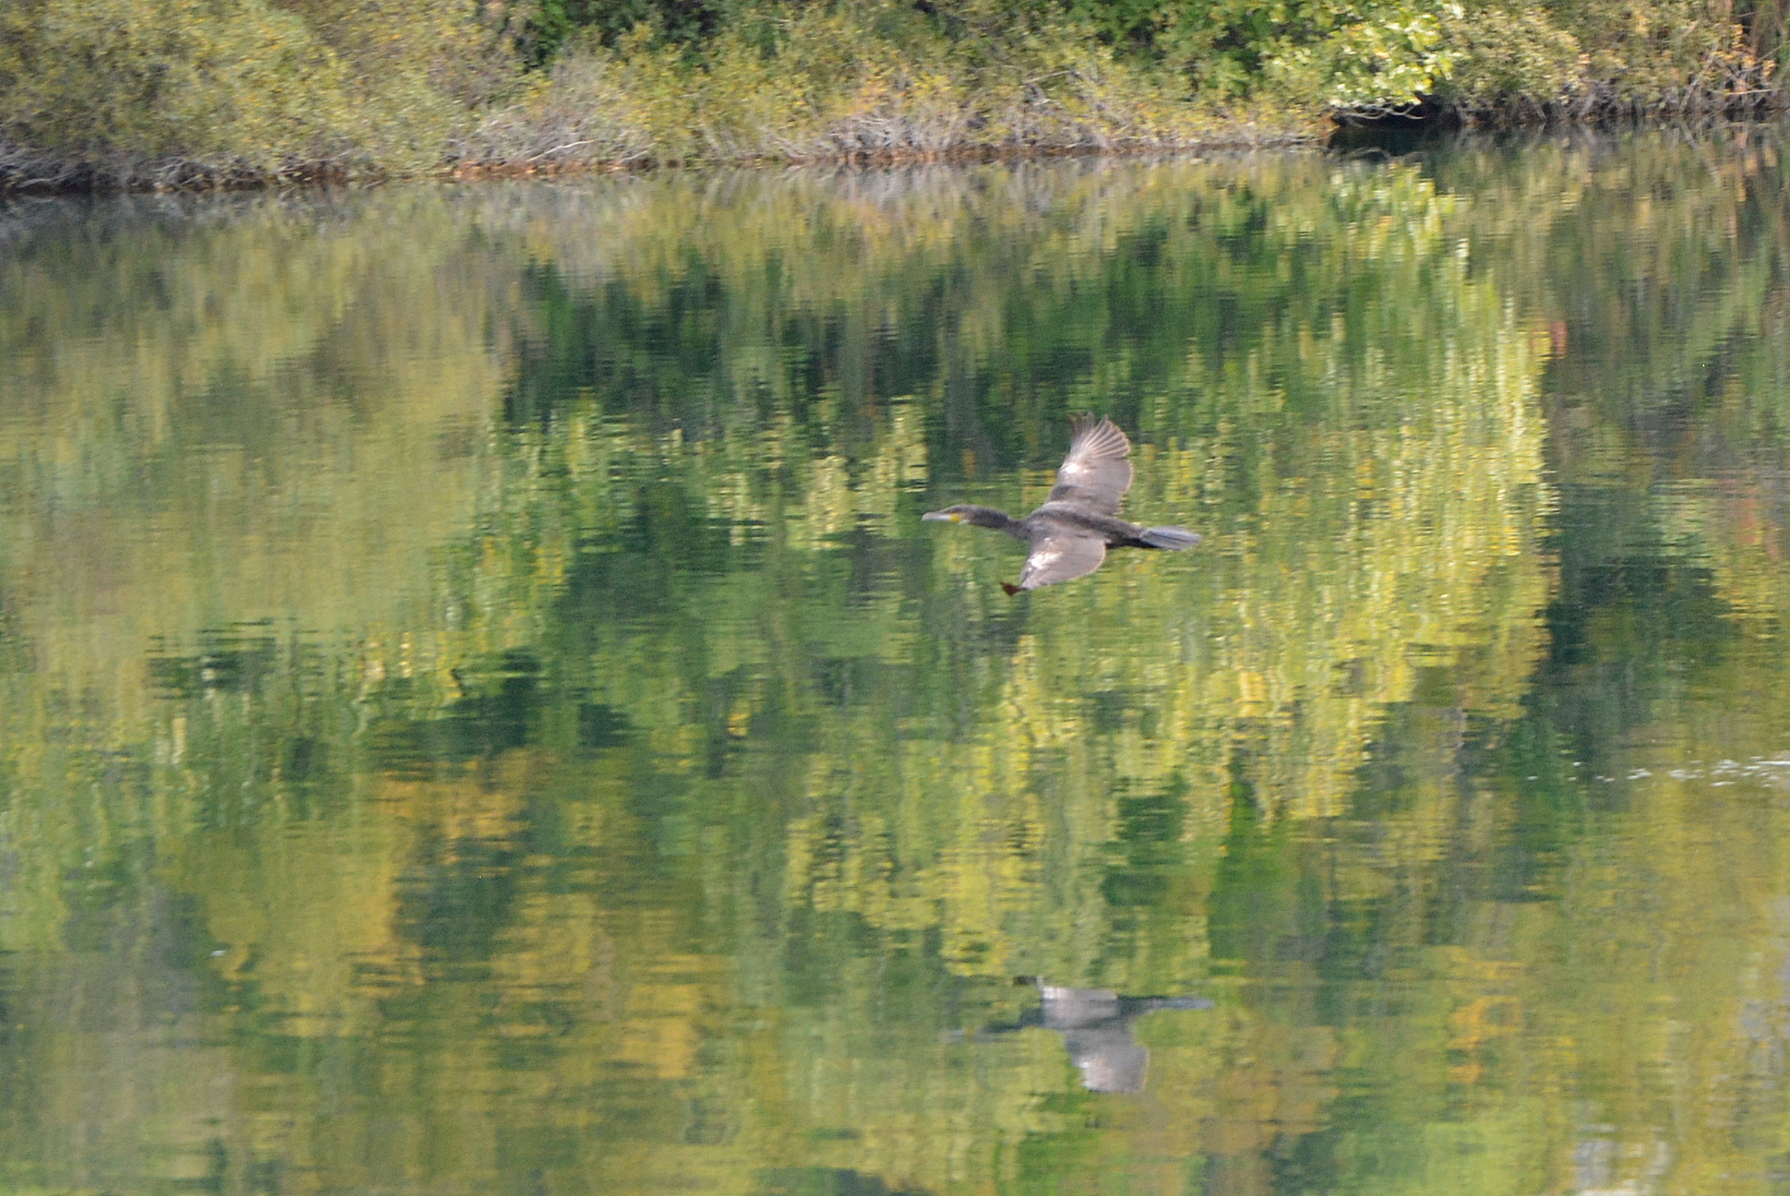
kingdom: Animalia
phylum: Chordata
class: Aves
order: Suliformes
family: Phalacrocoracidae
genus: Phalacrocorax
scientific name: Phalacrocorax carbo
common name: Great cormorant
